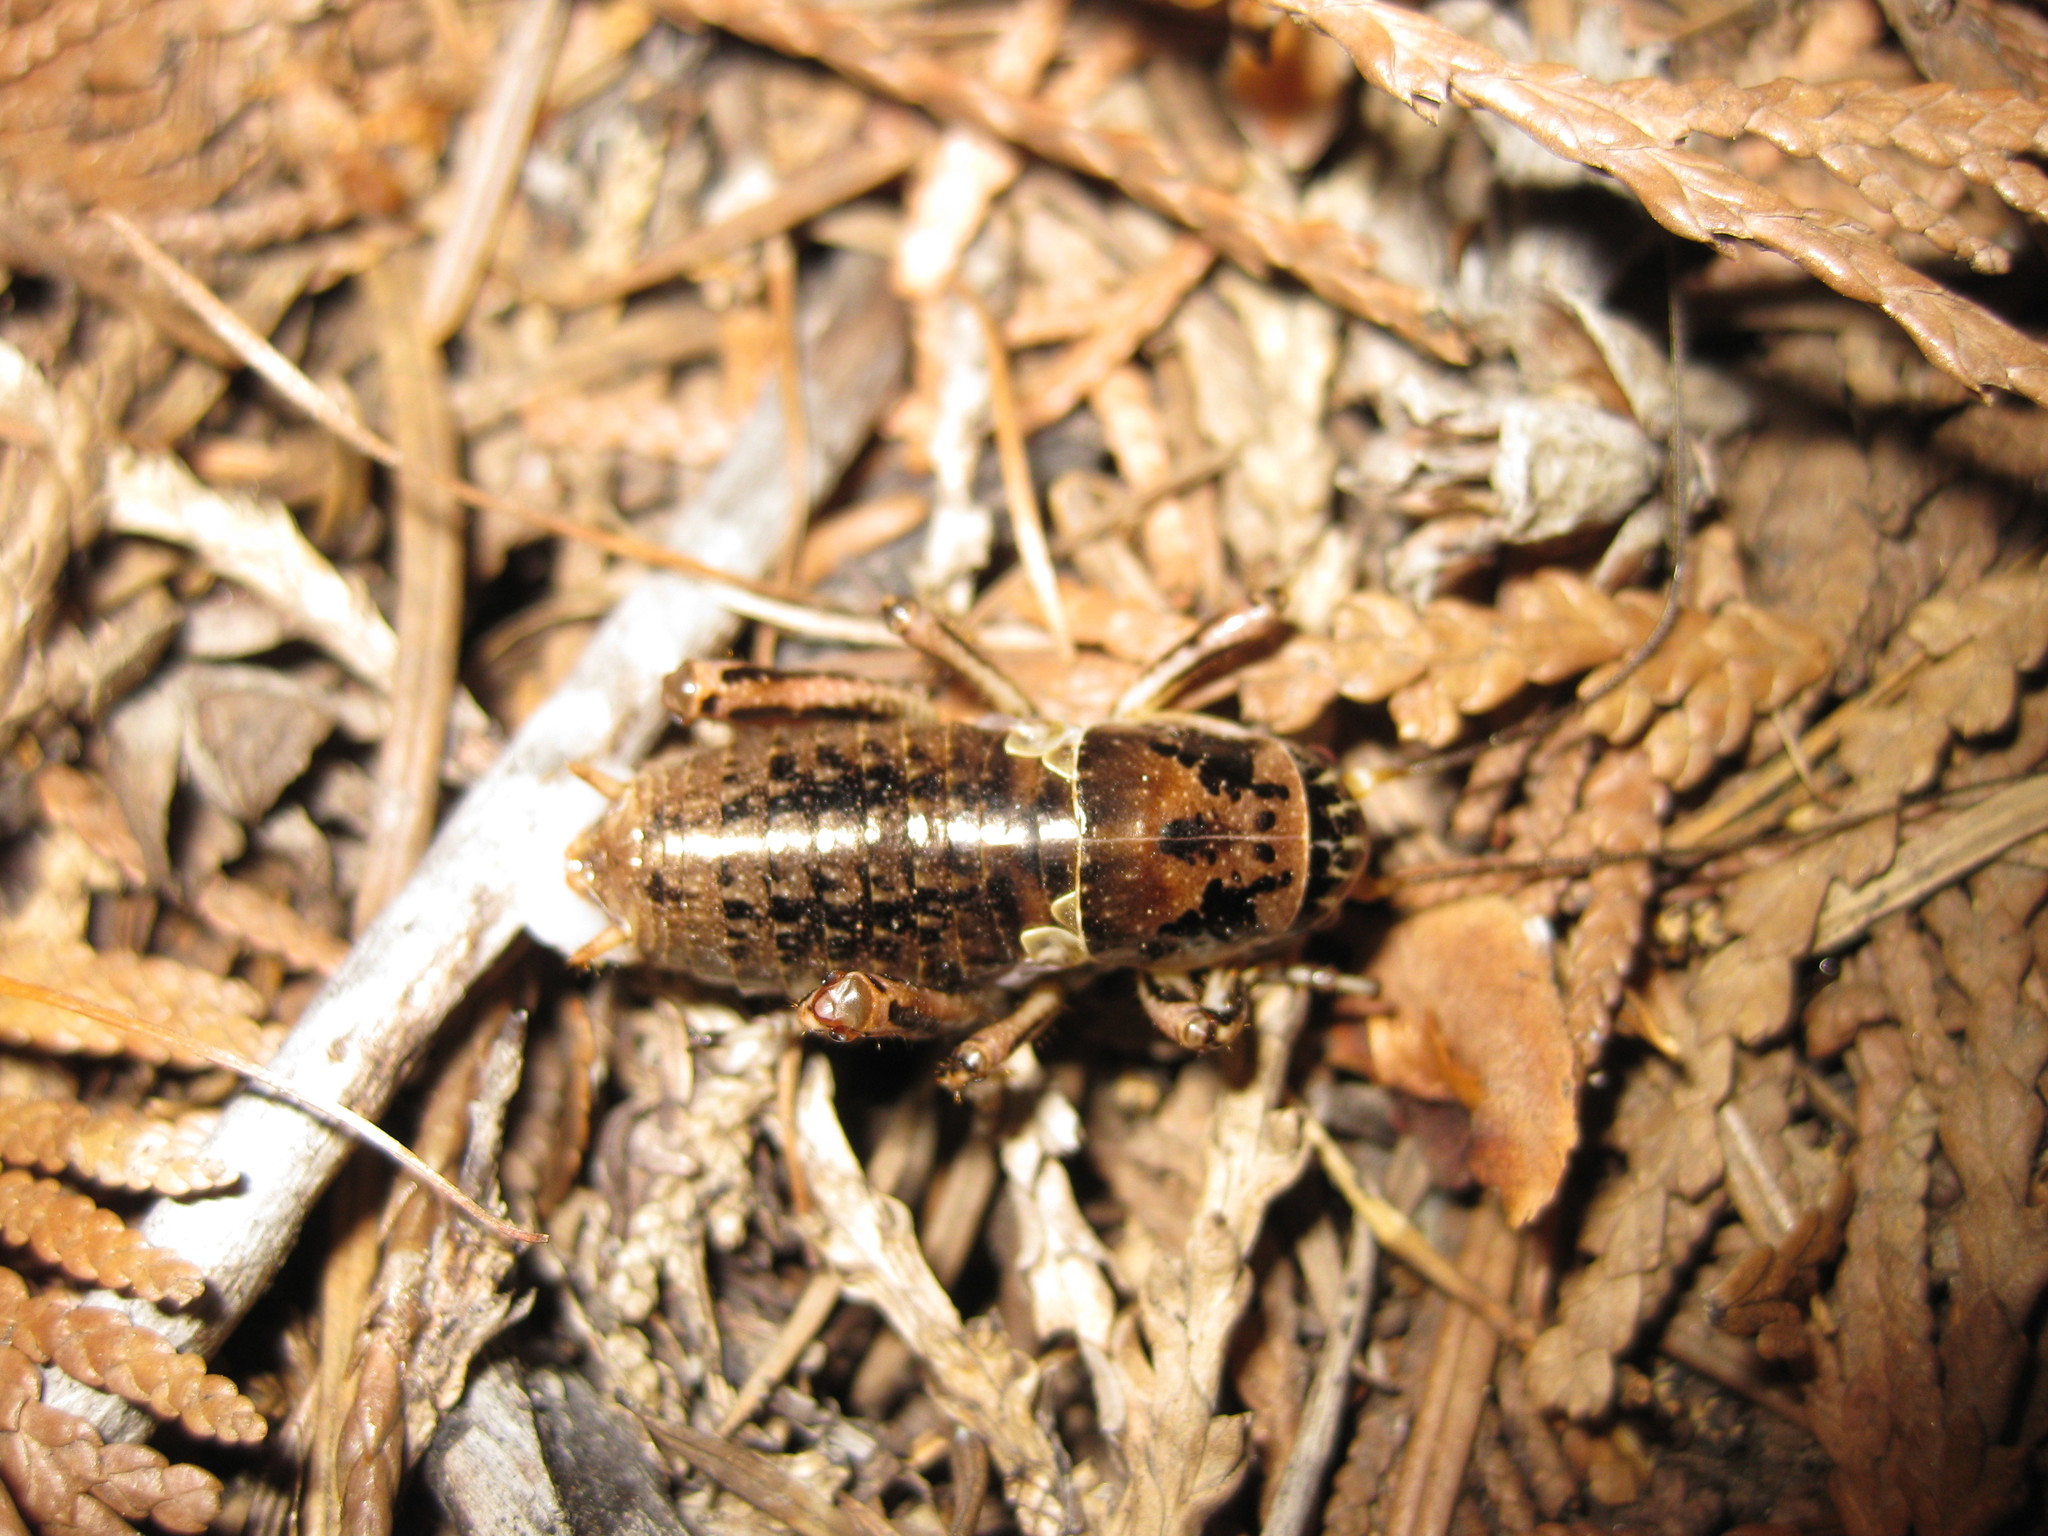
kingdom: Animalia
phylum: Arthropoda
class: Insecta
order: Orthoptera
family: Prophalangopsidae
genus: Cyphoderris
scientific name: Cyphoderris buckelli
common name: Buckell’s grig
